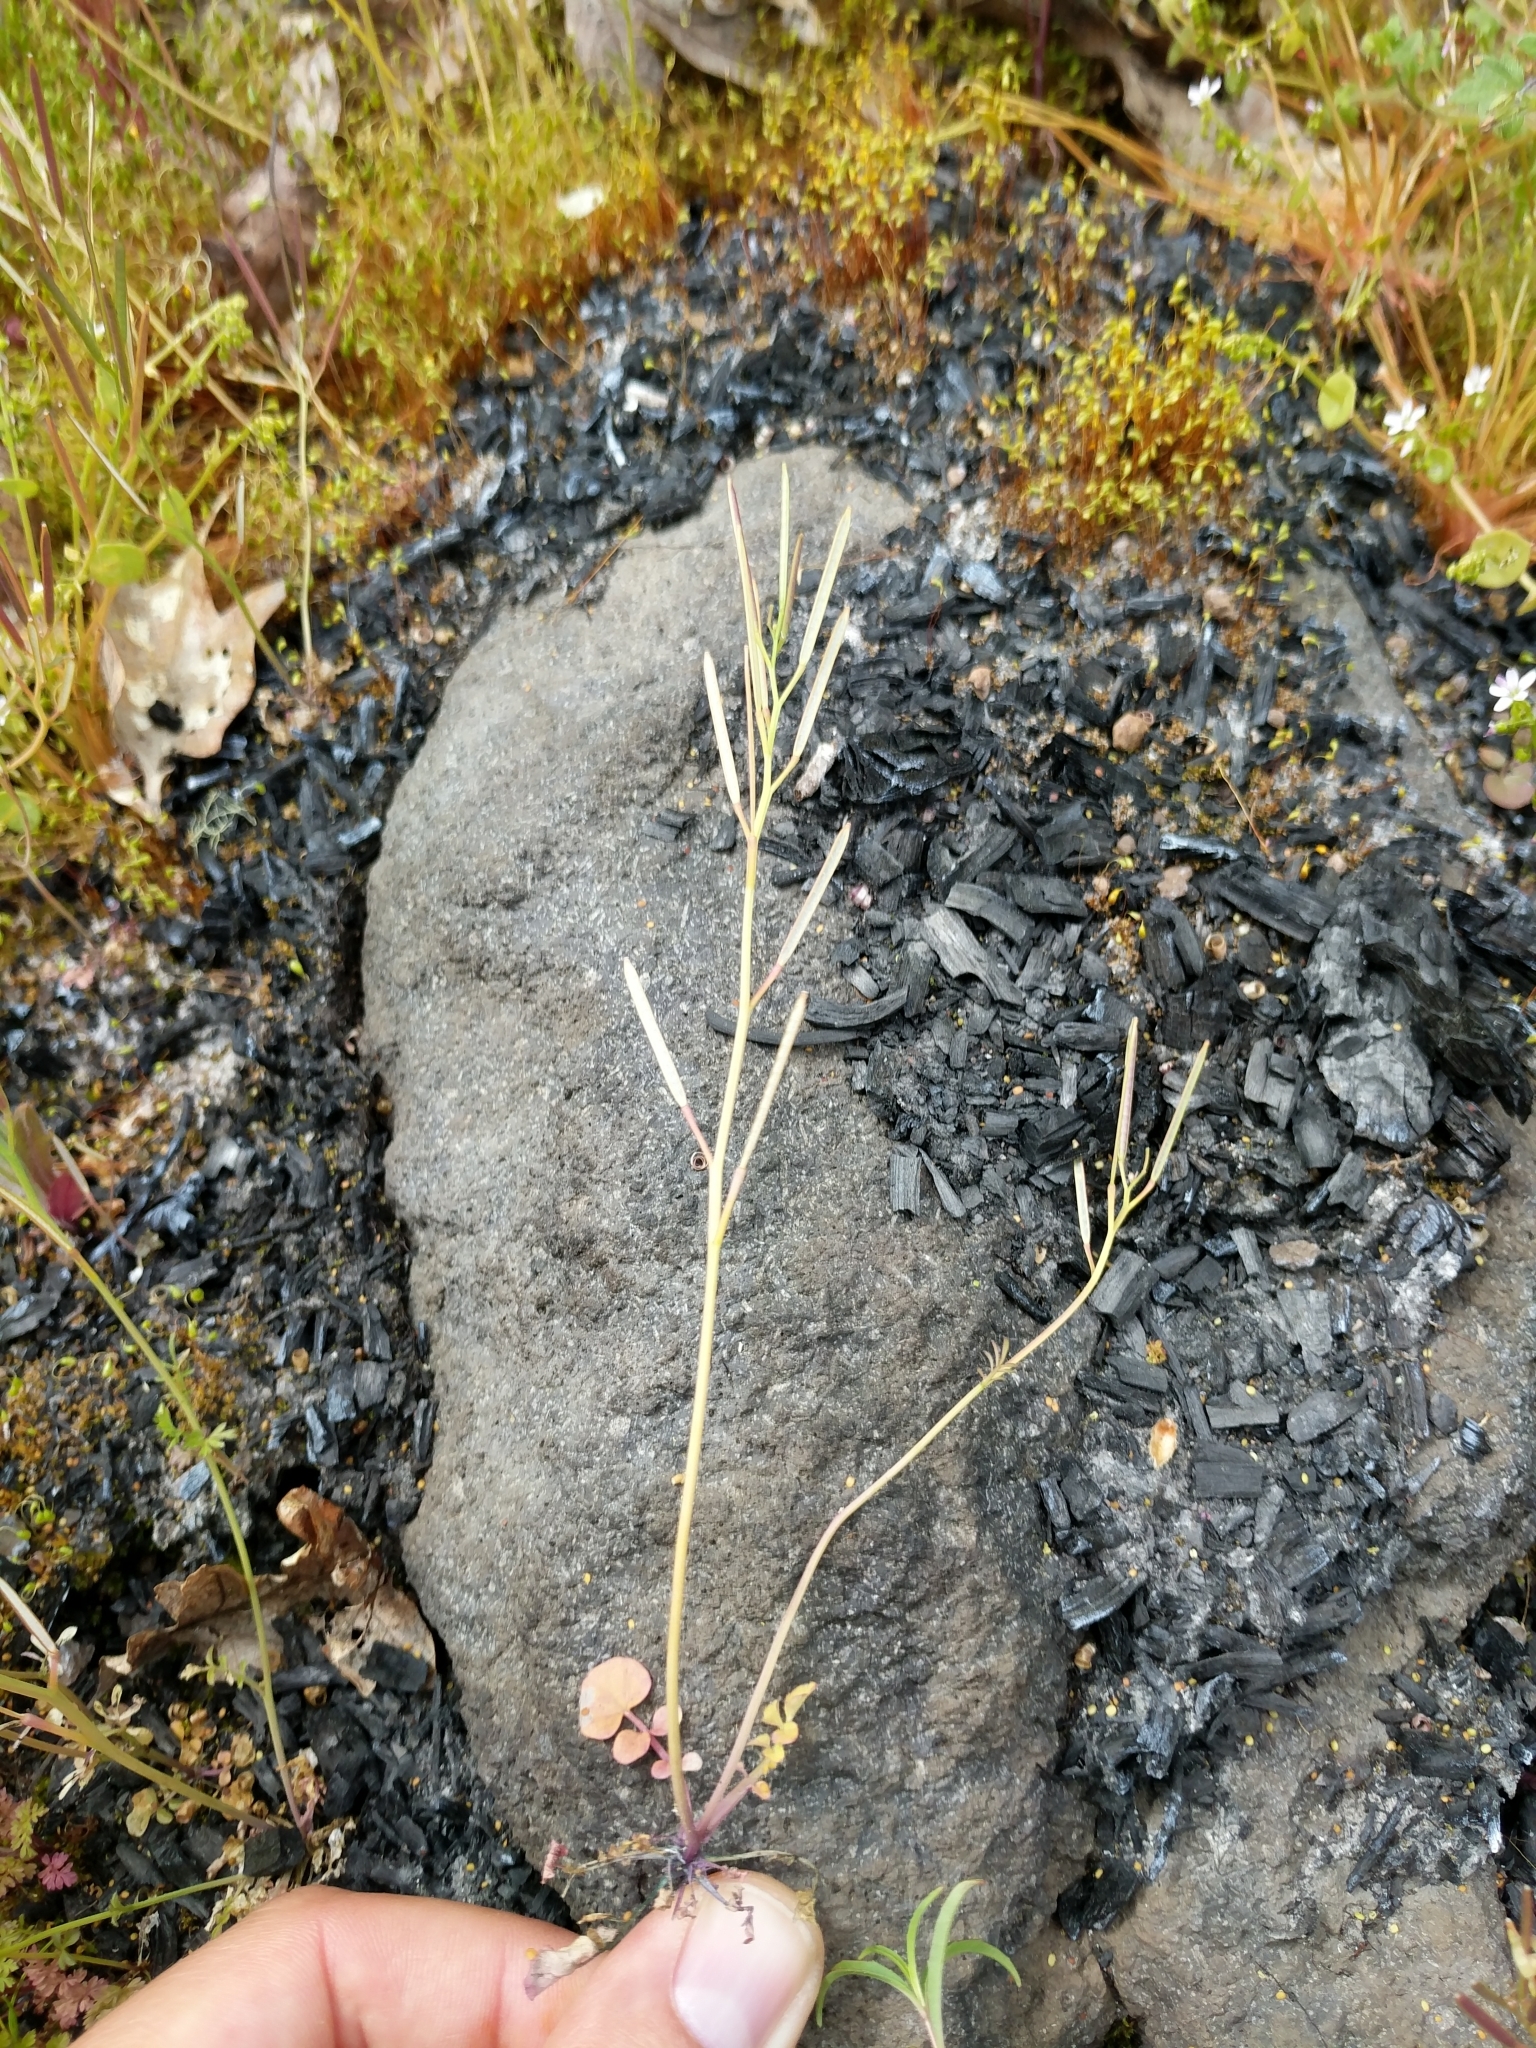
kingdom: Plantae
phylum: Tracheophyta
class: Magnoliopsida
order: Brassicales
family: Brassicaceae
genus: Cardamine
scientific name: Cardamine hirsuta
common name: Hairy bittercress
